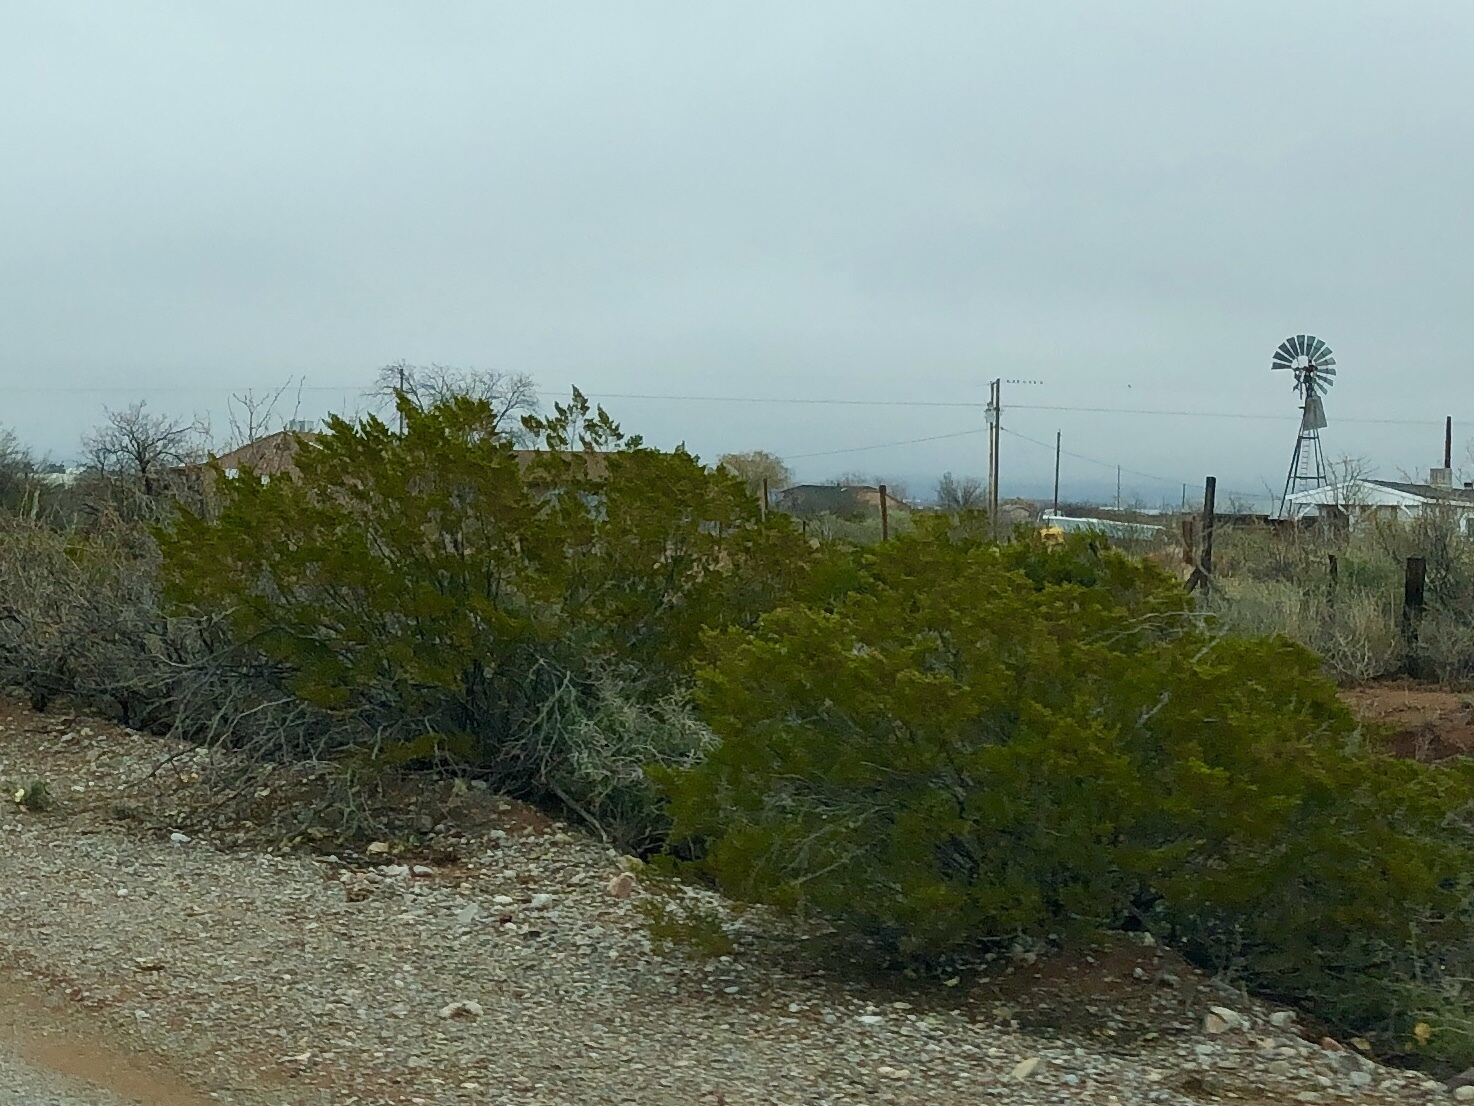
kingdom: Plantae
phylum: Tracheophyta
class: Magnoliopsida
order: Zygophyllales
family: Zygophyllaceae
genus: Larrea
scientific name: Larrea tridentata
